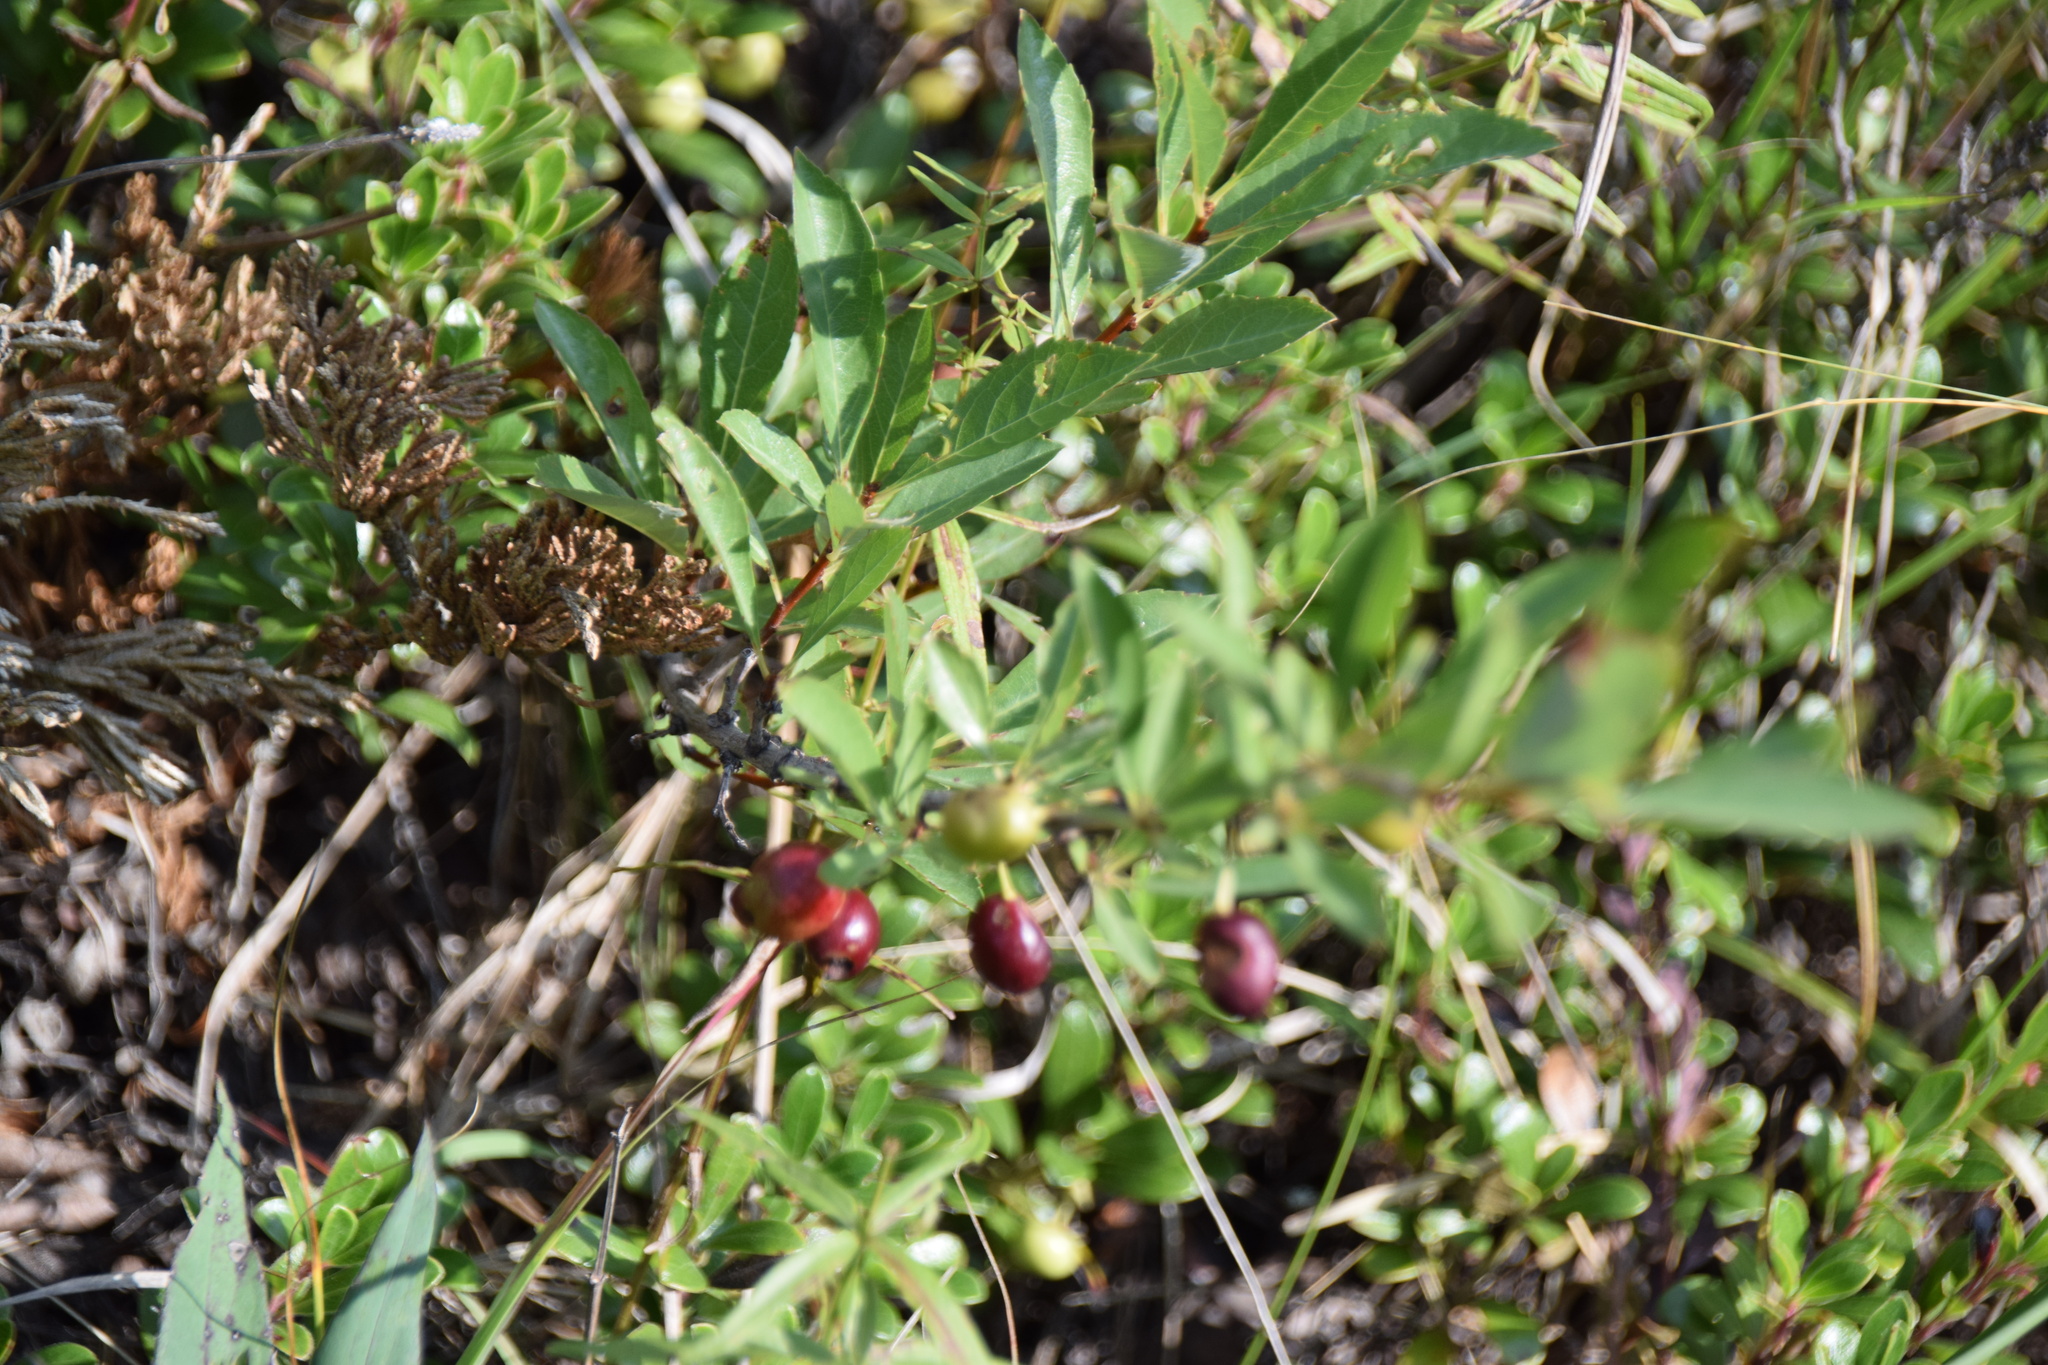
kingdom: Plantae
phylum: Tracheophyta
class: Magnoliopsida
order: Rosales
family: Rosaceae
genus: Prunus
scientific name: Prunus pumila
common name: Dwarf cherry
